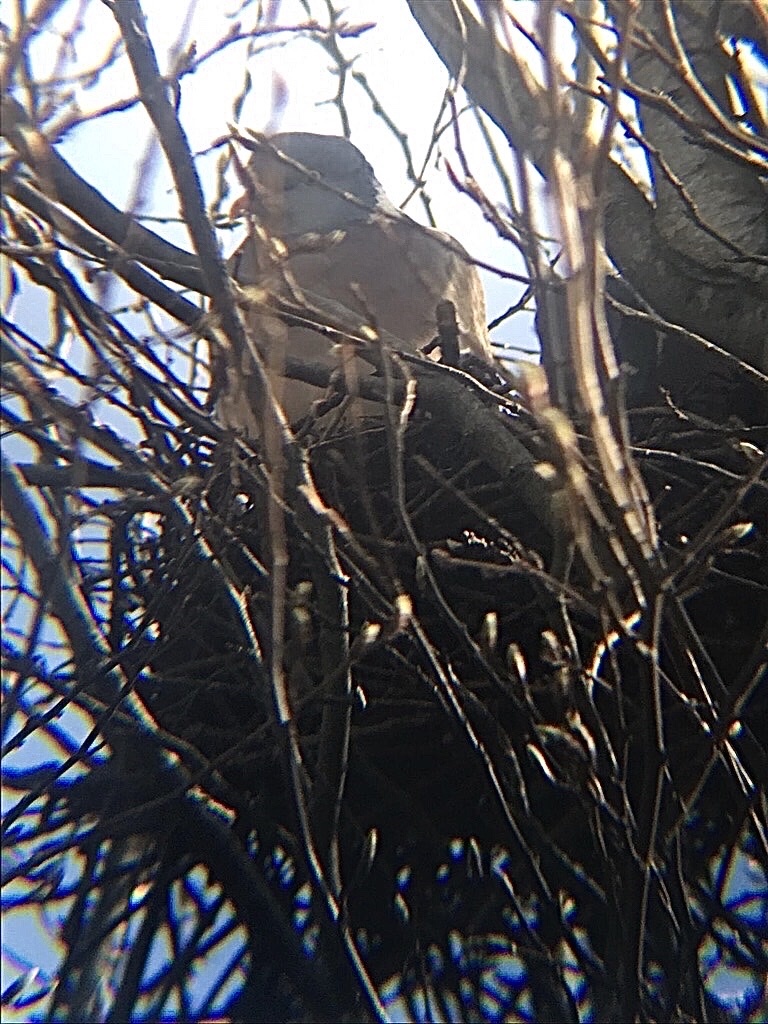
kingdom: Animalia
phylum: Chordata
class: Aves
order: Columbiformes
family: Columbidae
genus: Columba
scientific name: Columba palumbus
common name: Common wood pigeon
